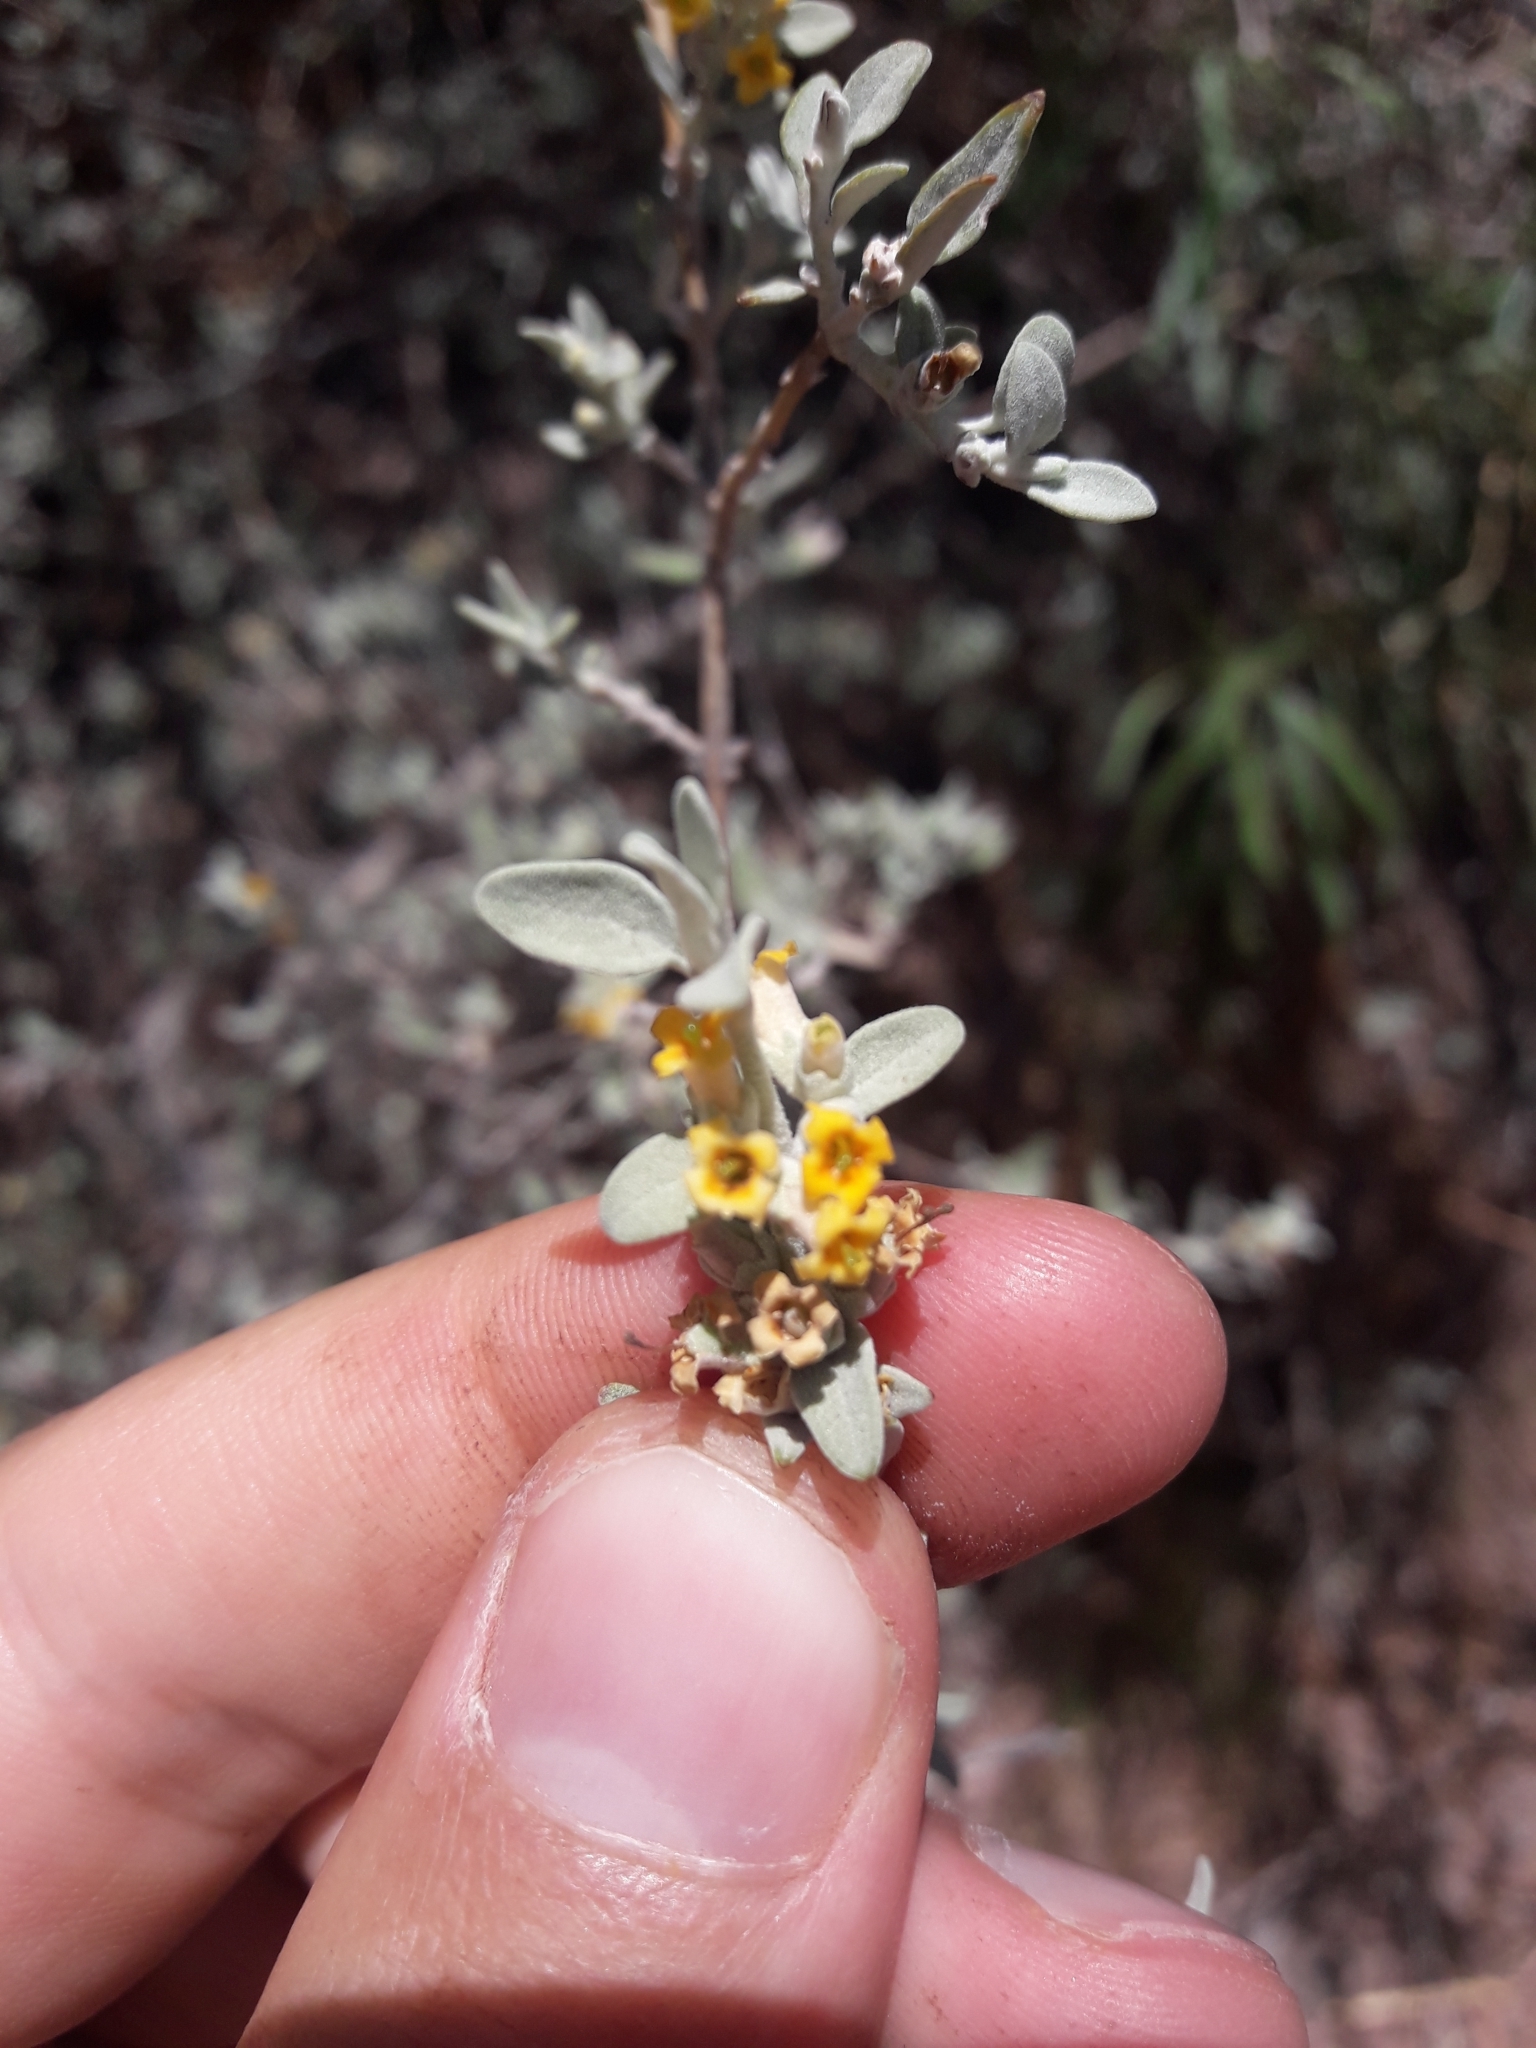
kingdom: Plantae
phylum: Tracheophyta
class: Magnoliopsida
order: Lamiales
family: Scrophulariaceae
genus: Buddleja
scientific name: Buddleja mendozensis
